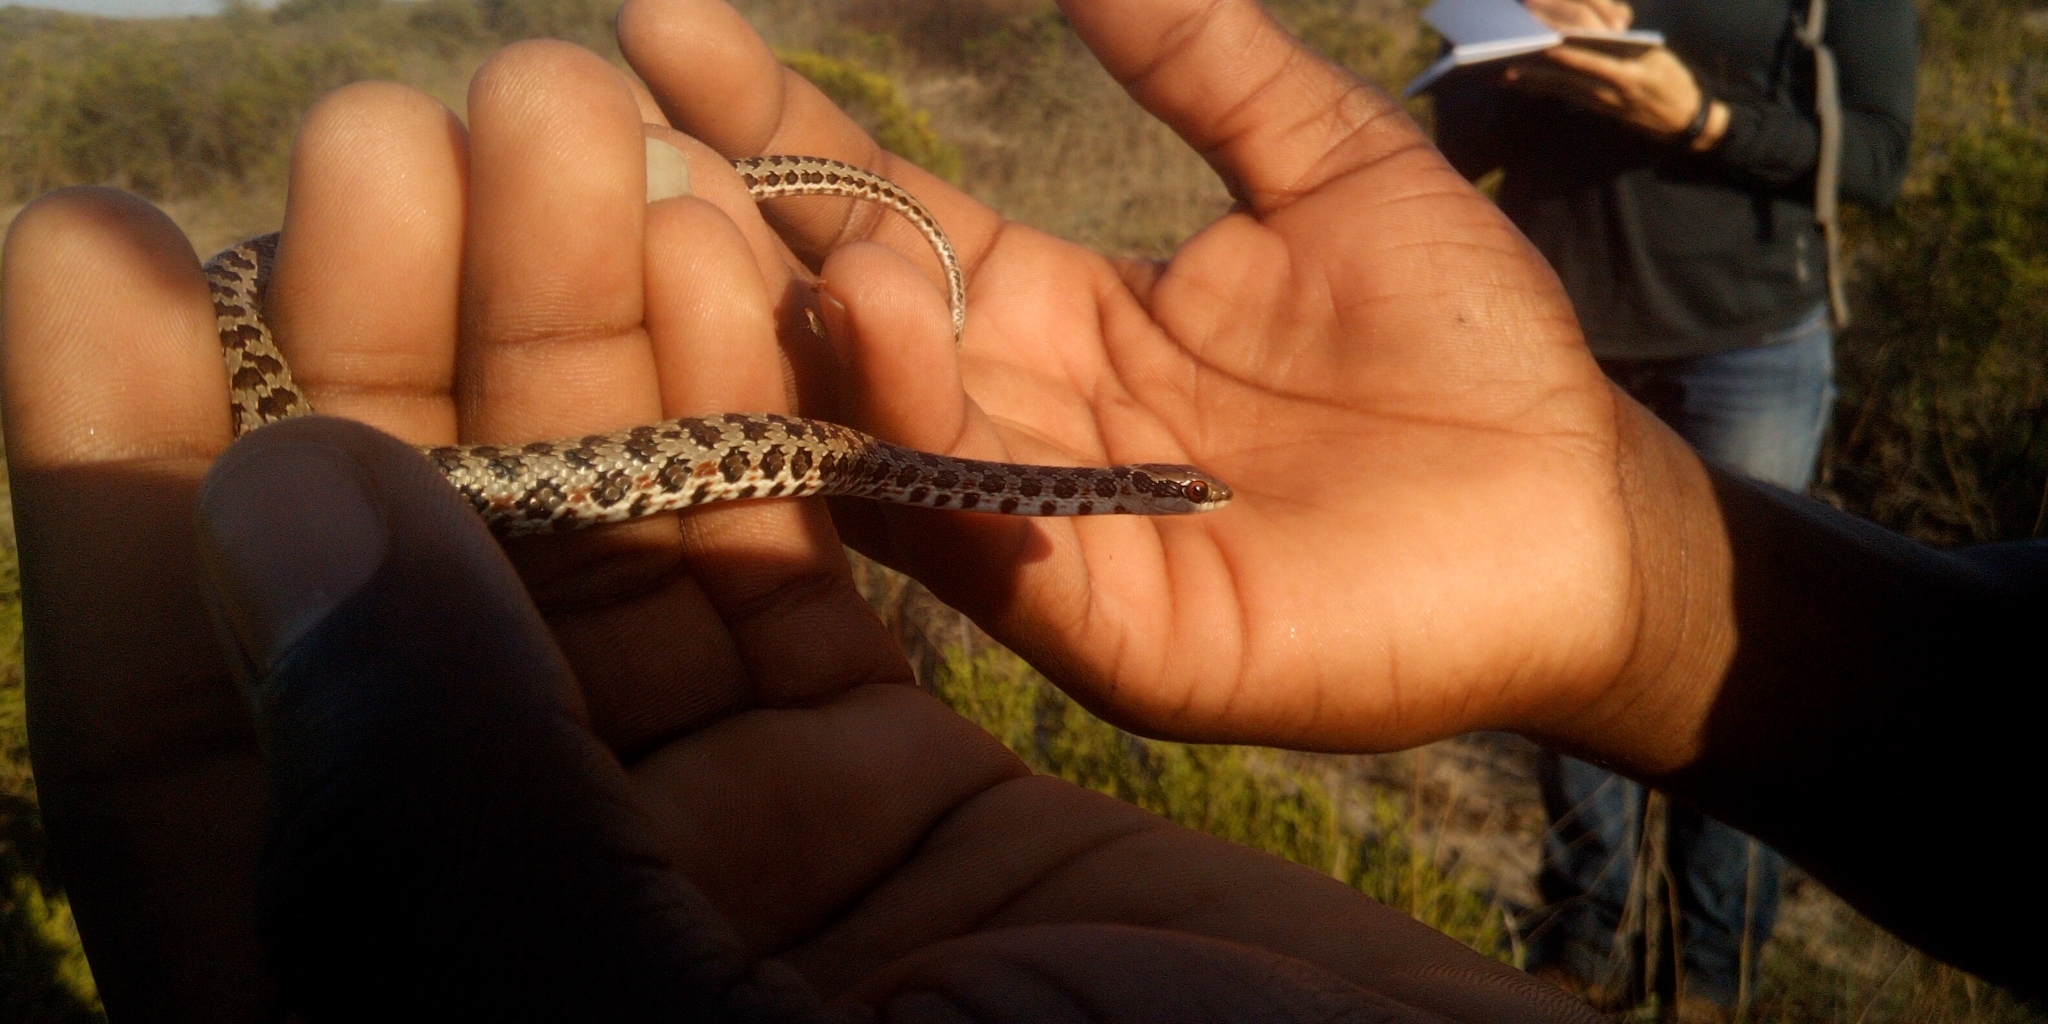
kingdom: Animalia
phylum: Chordata
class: Squamata
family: Psammophiidae
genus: Psammophylax
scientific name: Psammophylax rhombeatus
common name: Rhombic skaapsteker
